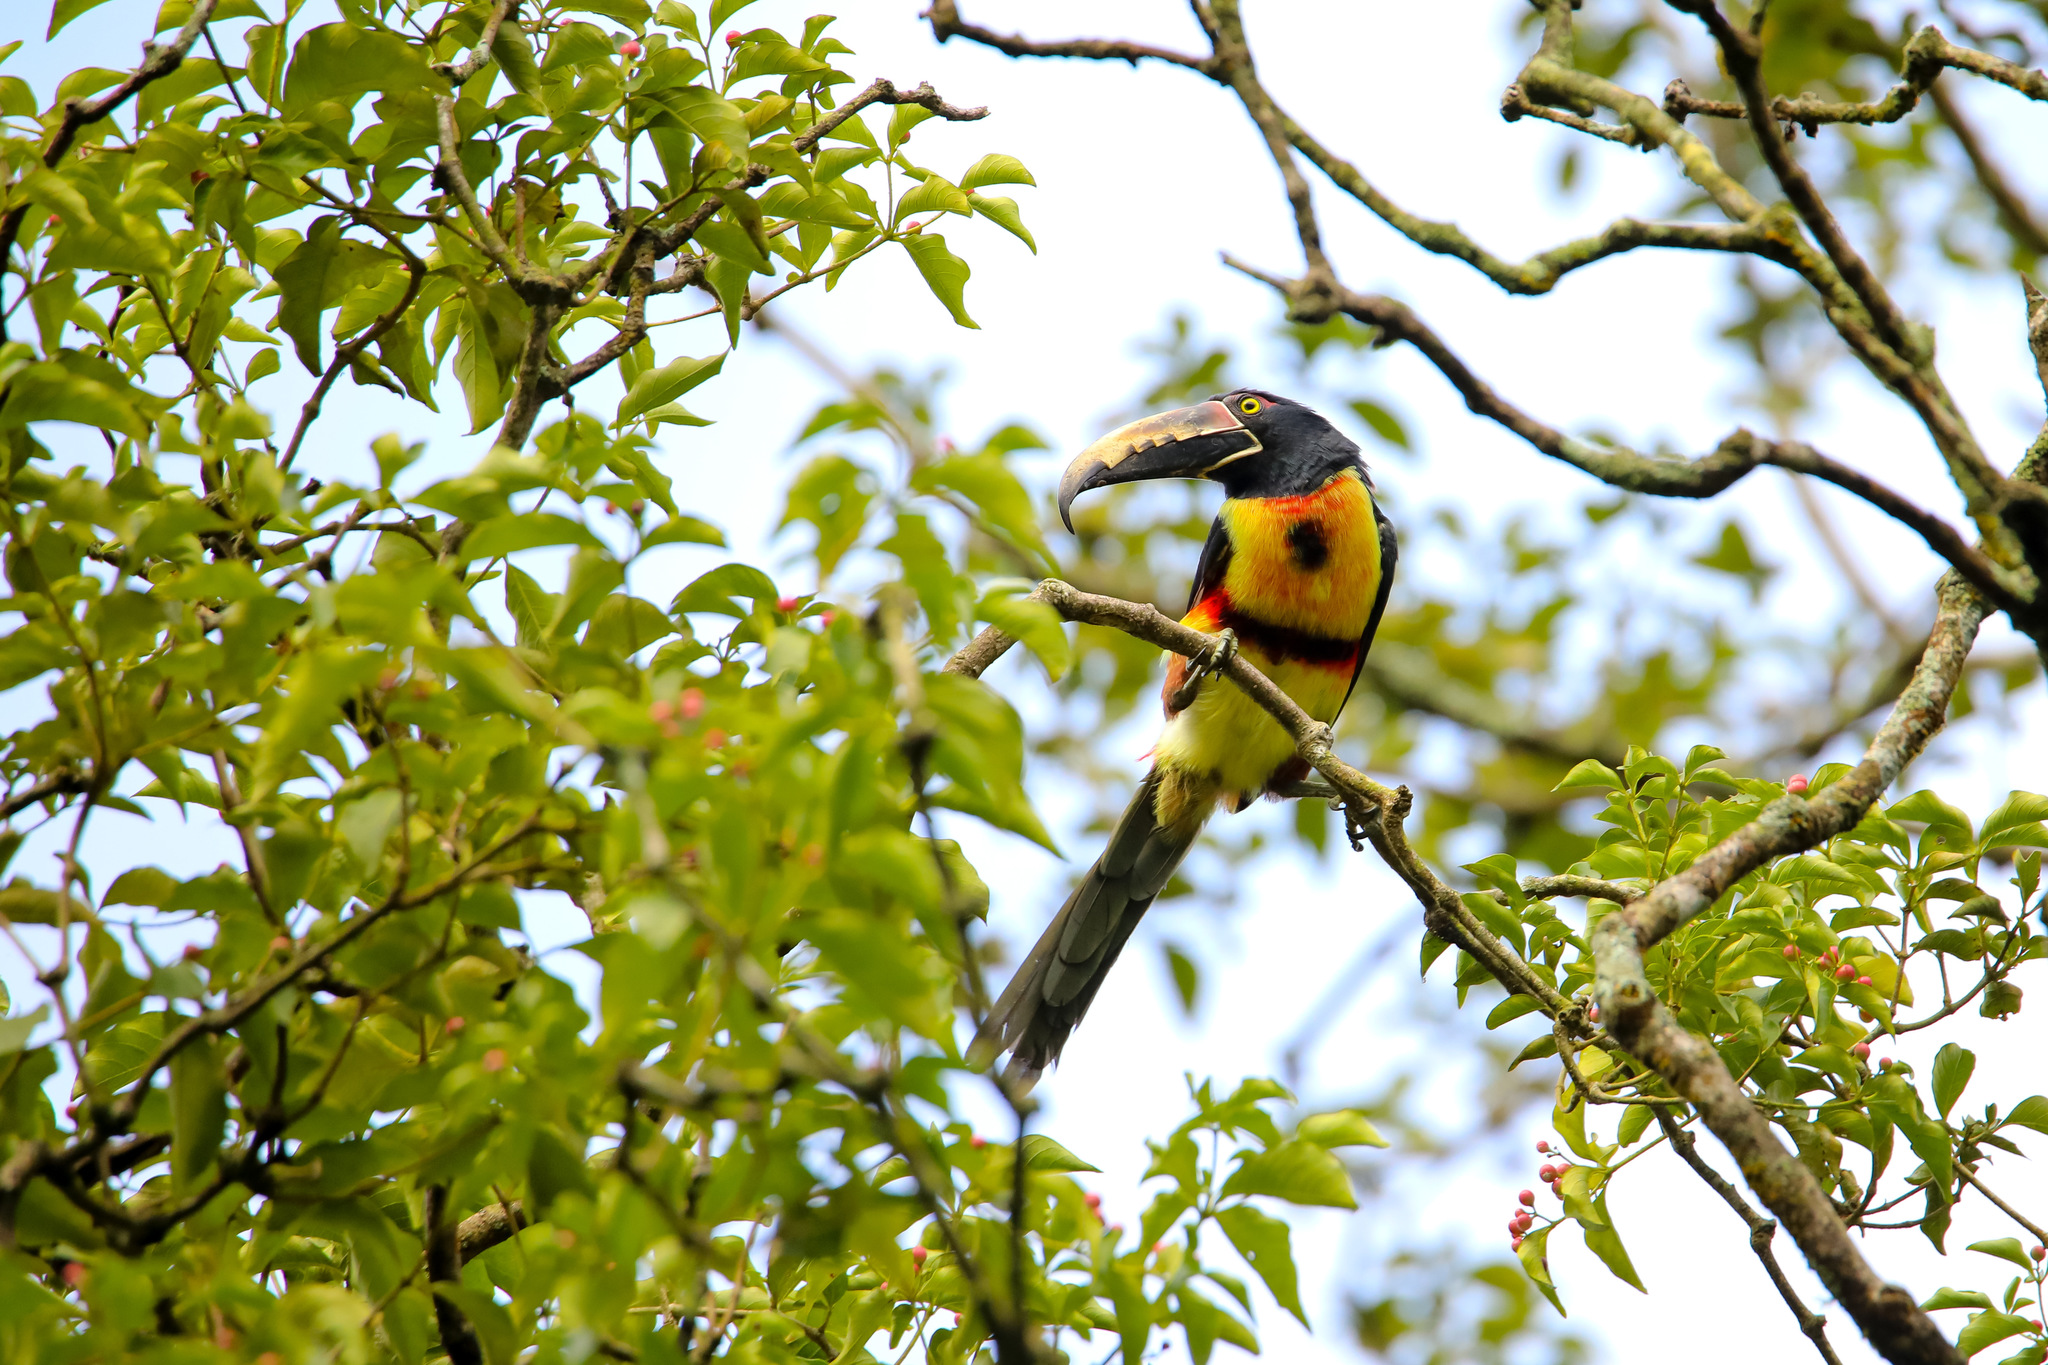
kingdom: Animalia
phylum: Chordata
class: Aves
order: Piciformes
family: Ramphastidae
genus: Pteroglossus
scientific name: Pteroglossus torquatus
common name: Collared aracari
